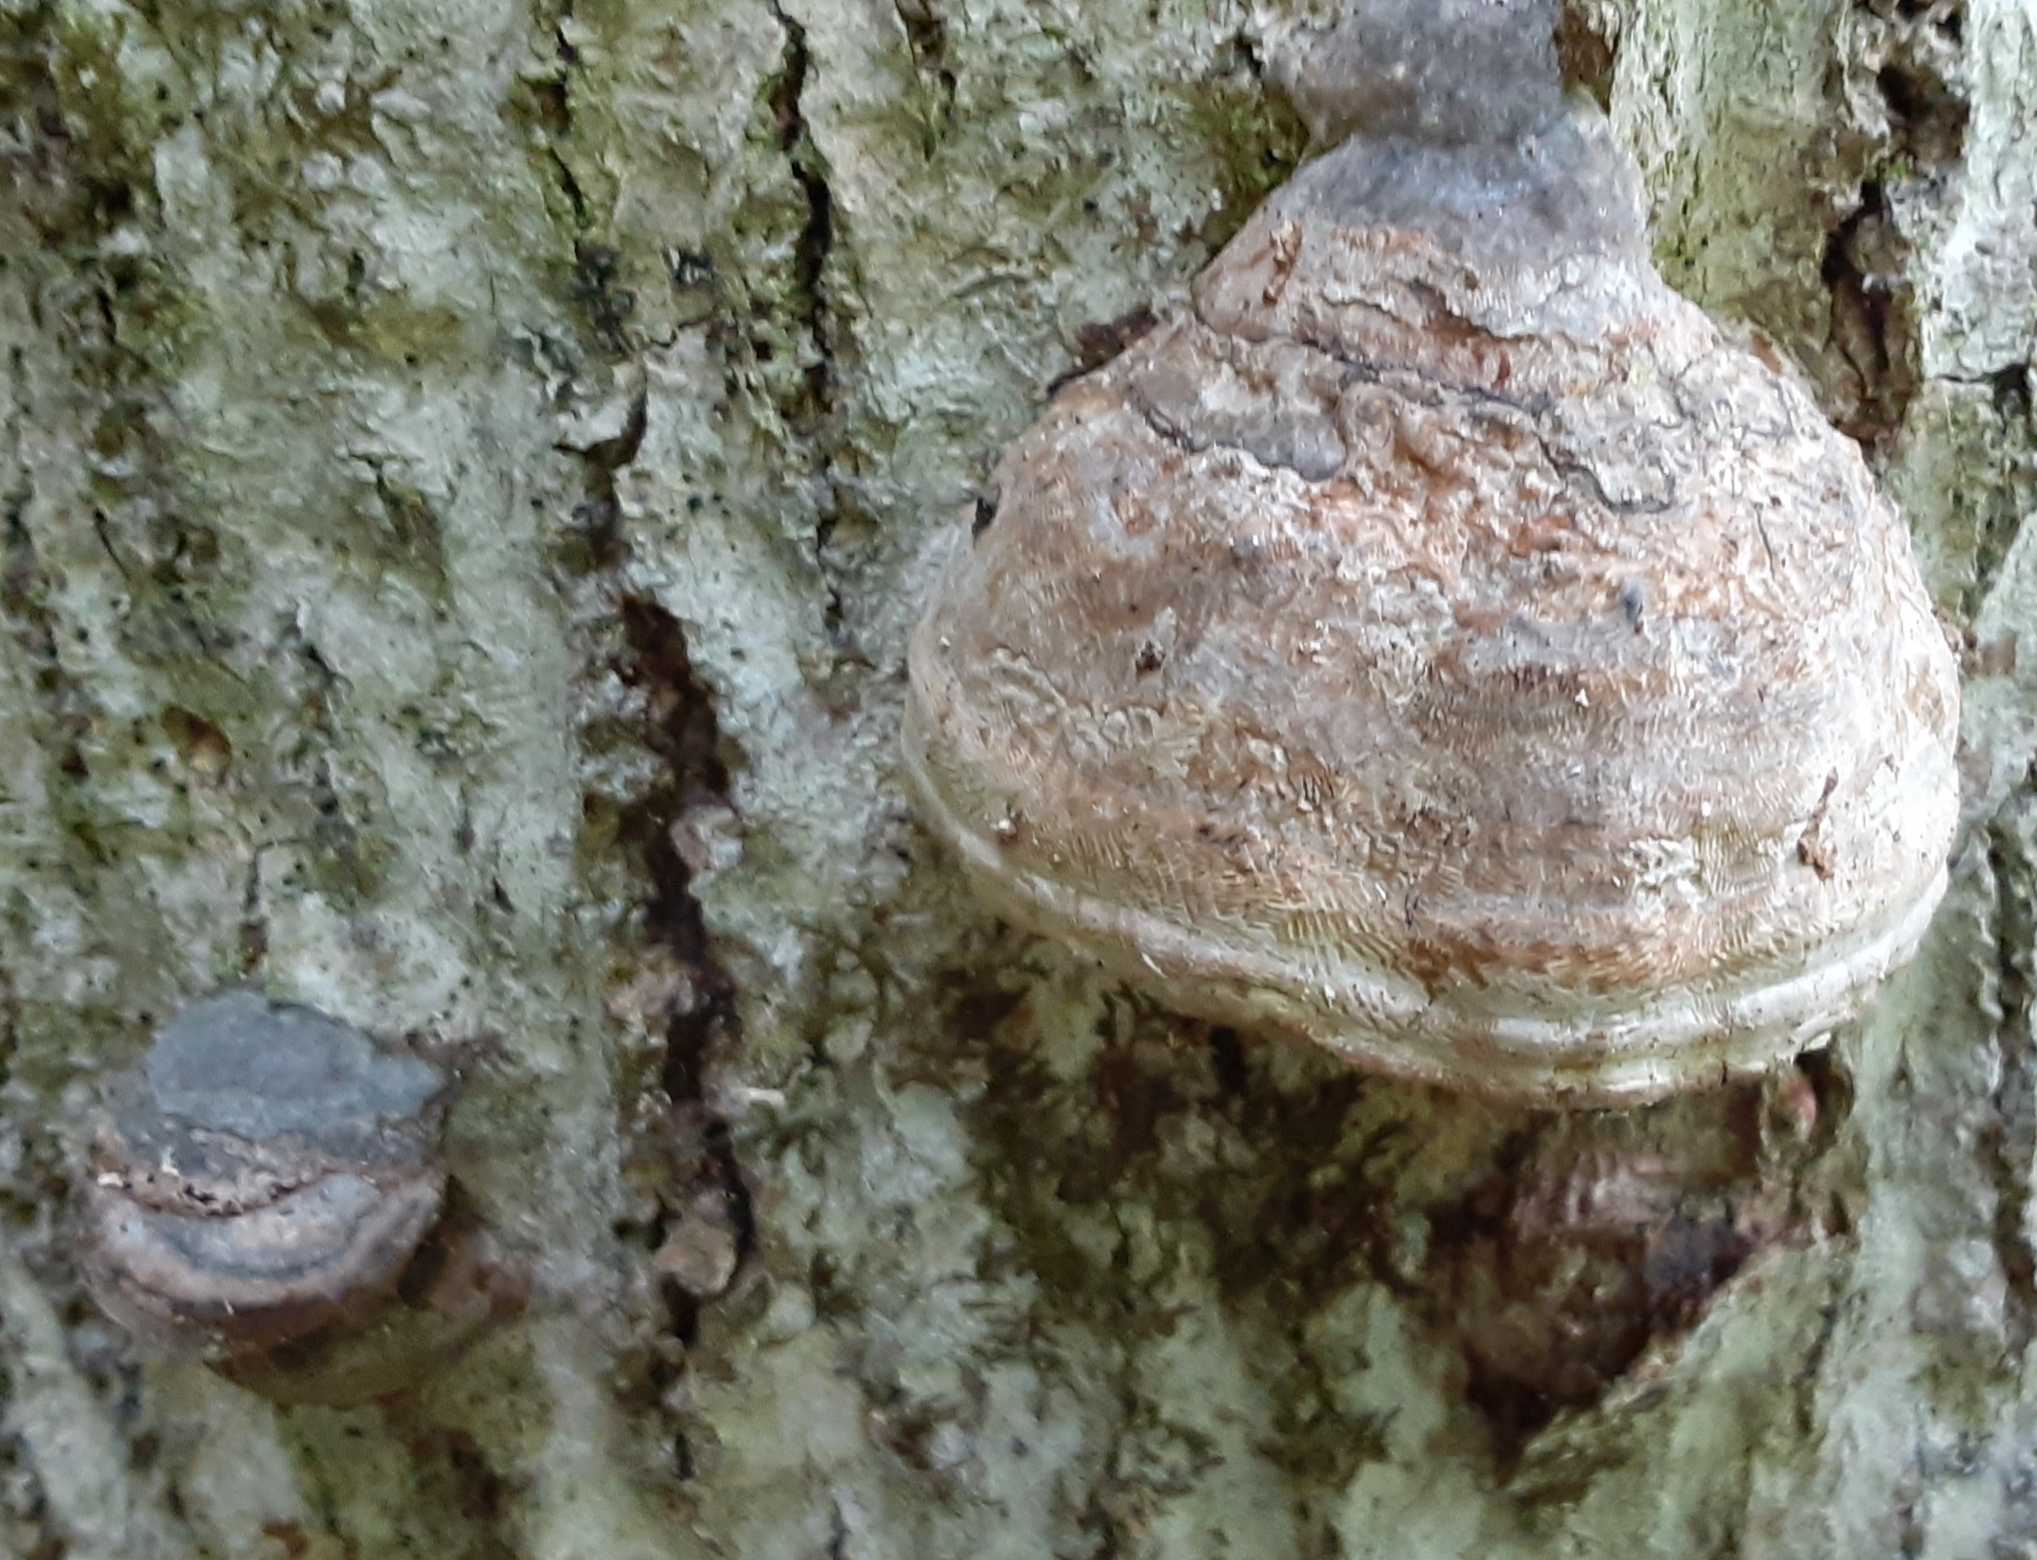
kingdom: Fungi
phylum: Basidiomycota
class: Agaricomycetes
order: Polyporales
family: Polyporaceae
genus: Fomes
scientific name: Fomes fomentarius
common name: Hoof fungus
